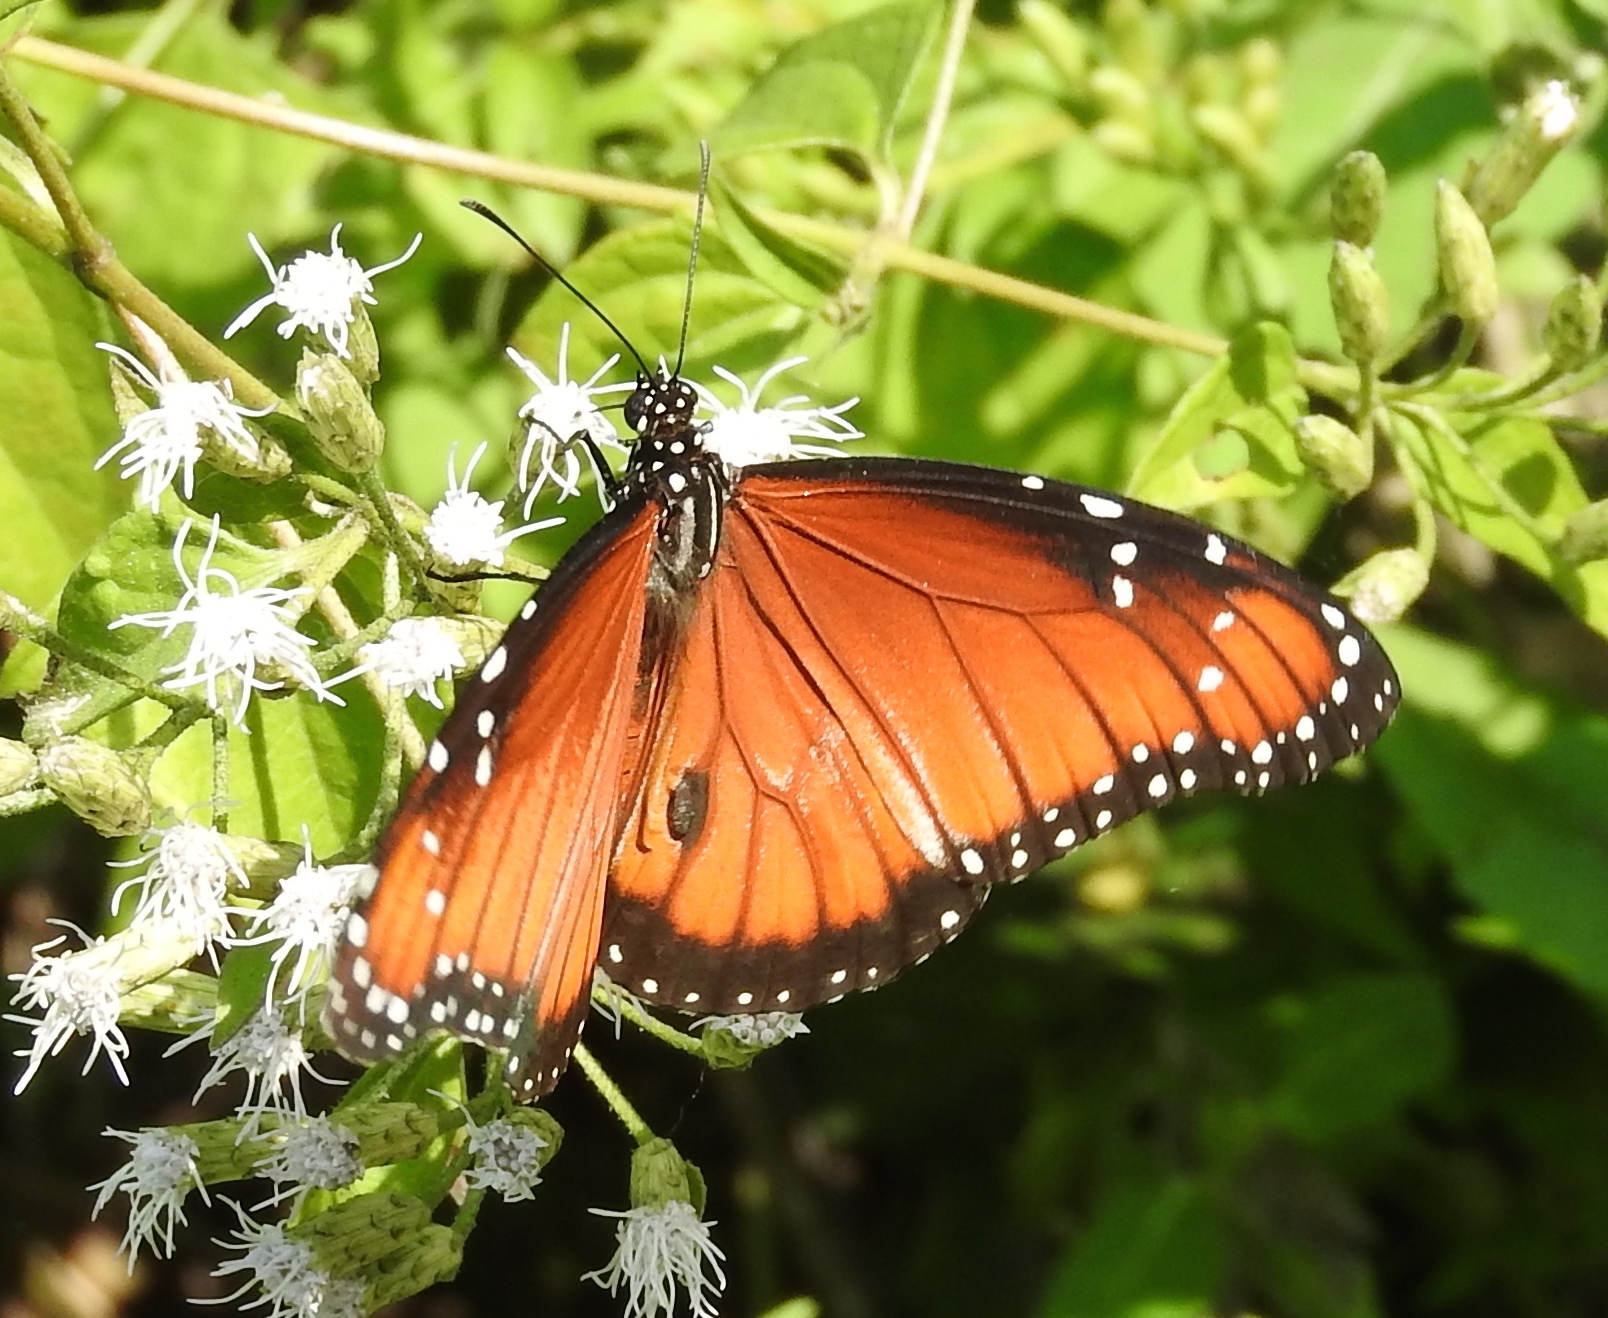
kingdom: Animalia
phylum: Arthropoda
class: Insecta
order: Lepidoptera
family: Nymphalidae
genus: Danaus
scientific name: Danaus eresimus
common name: Soldier
